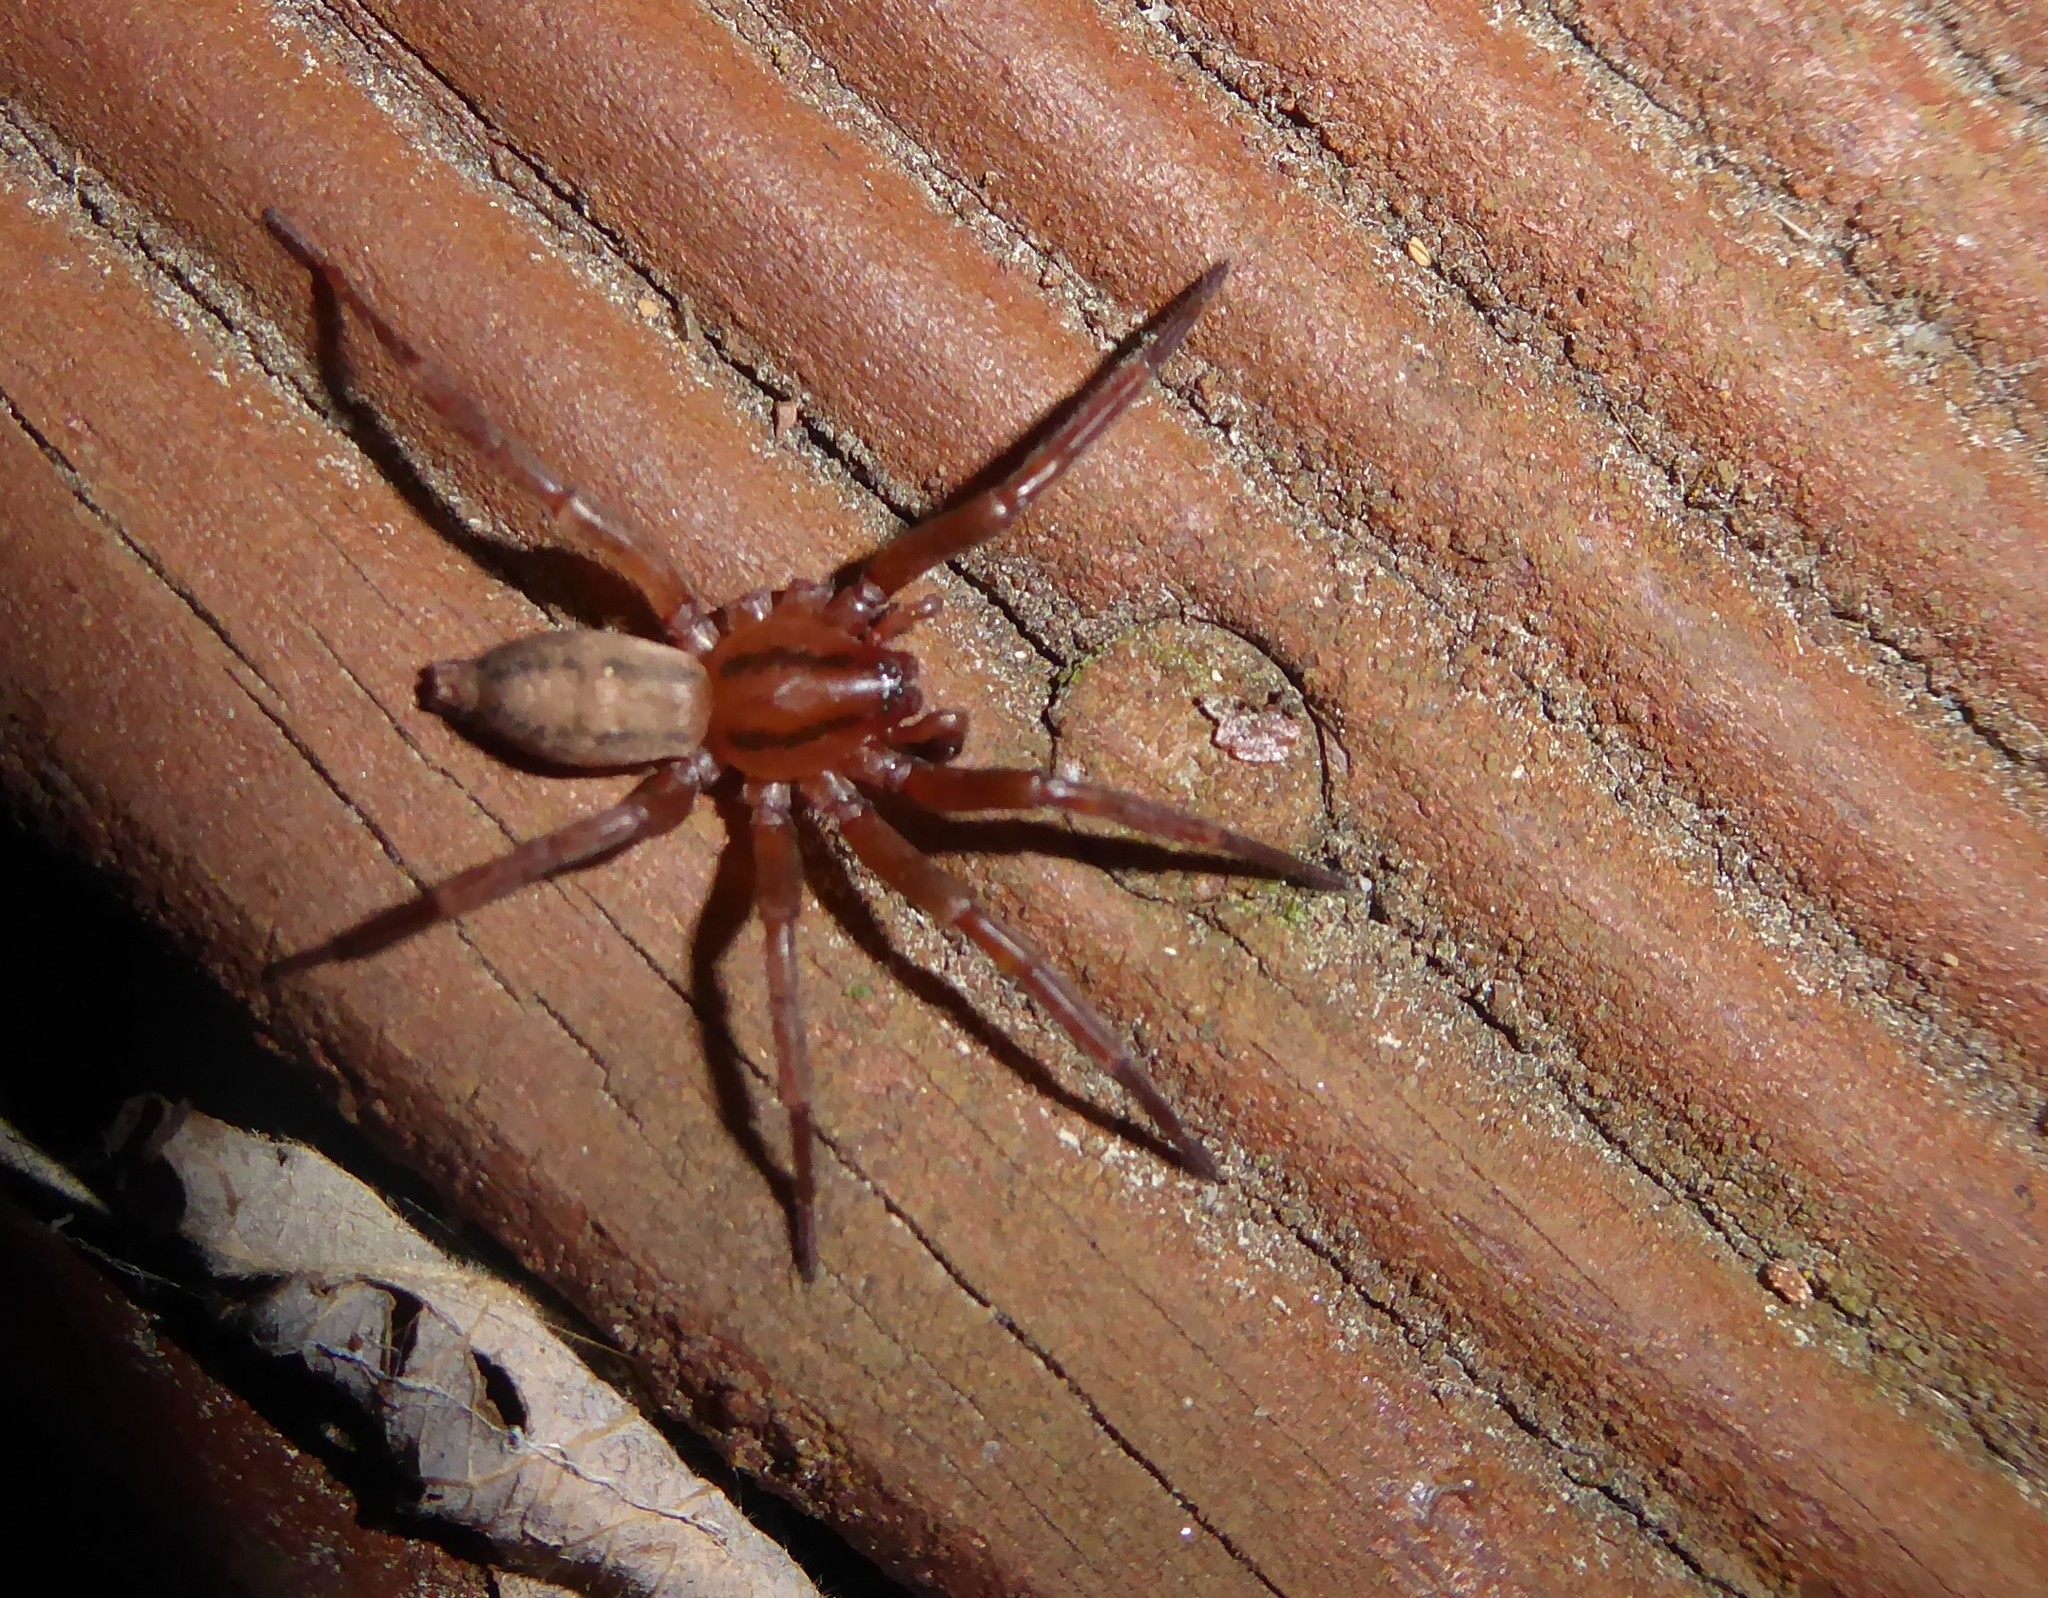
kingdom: Animalia
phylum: Arthropoda
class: Arachnida
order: Araneae
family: Gnaphosidae
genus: Notiodrassus
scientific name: Notiodrassus distinctus
